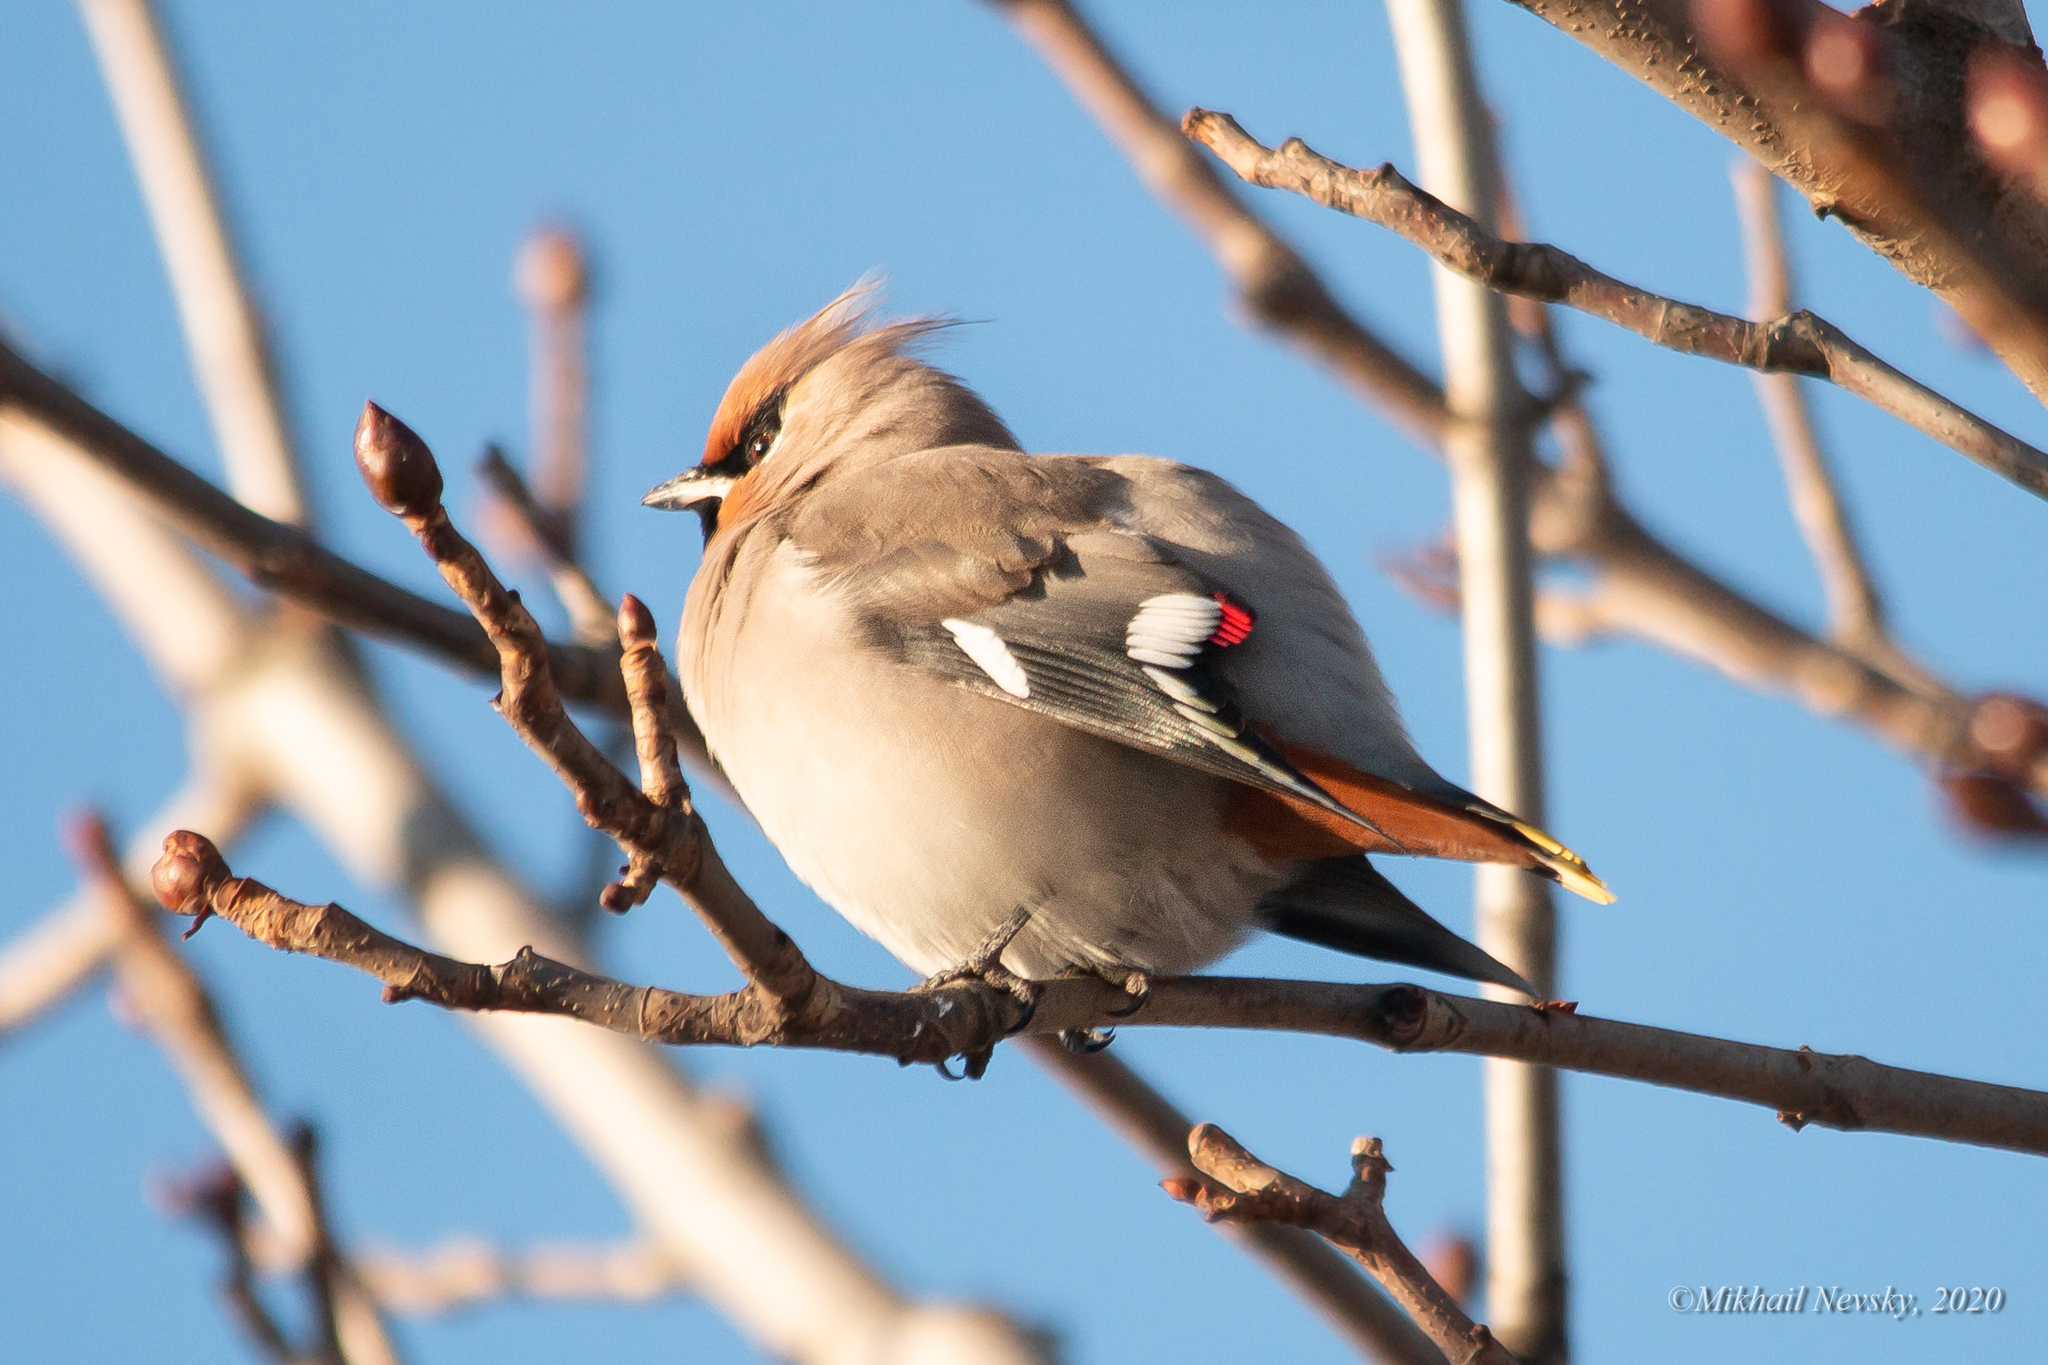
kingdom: Animalia
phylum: Chordata
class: Aves
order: Passeriformes
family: Bombycillidae
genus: Bombycilla
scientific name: Bombycilla garrulus
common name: Bohemian waxwing
